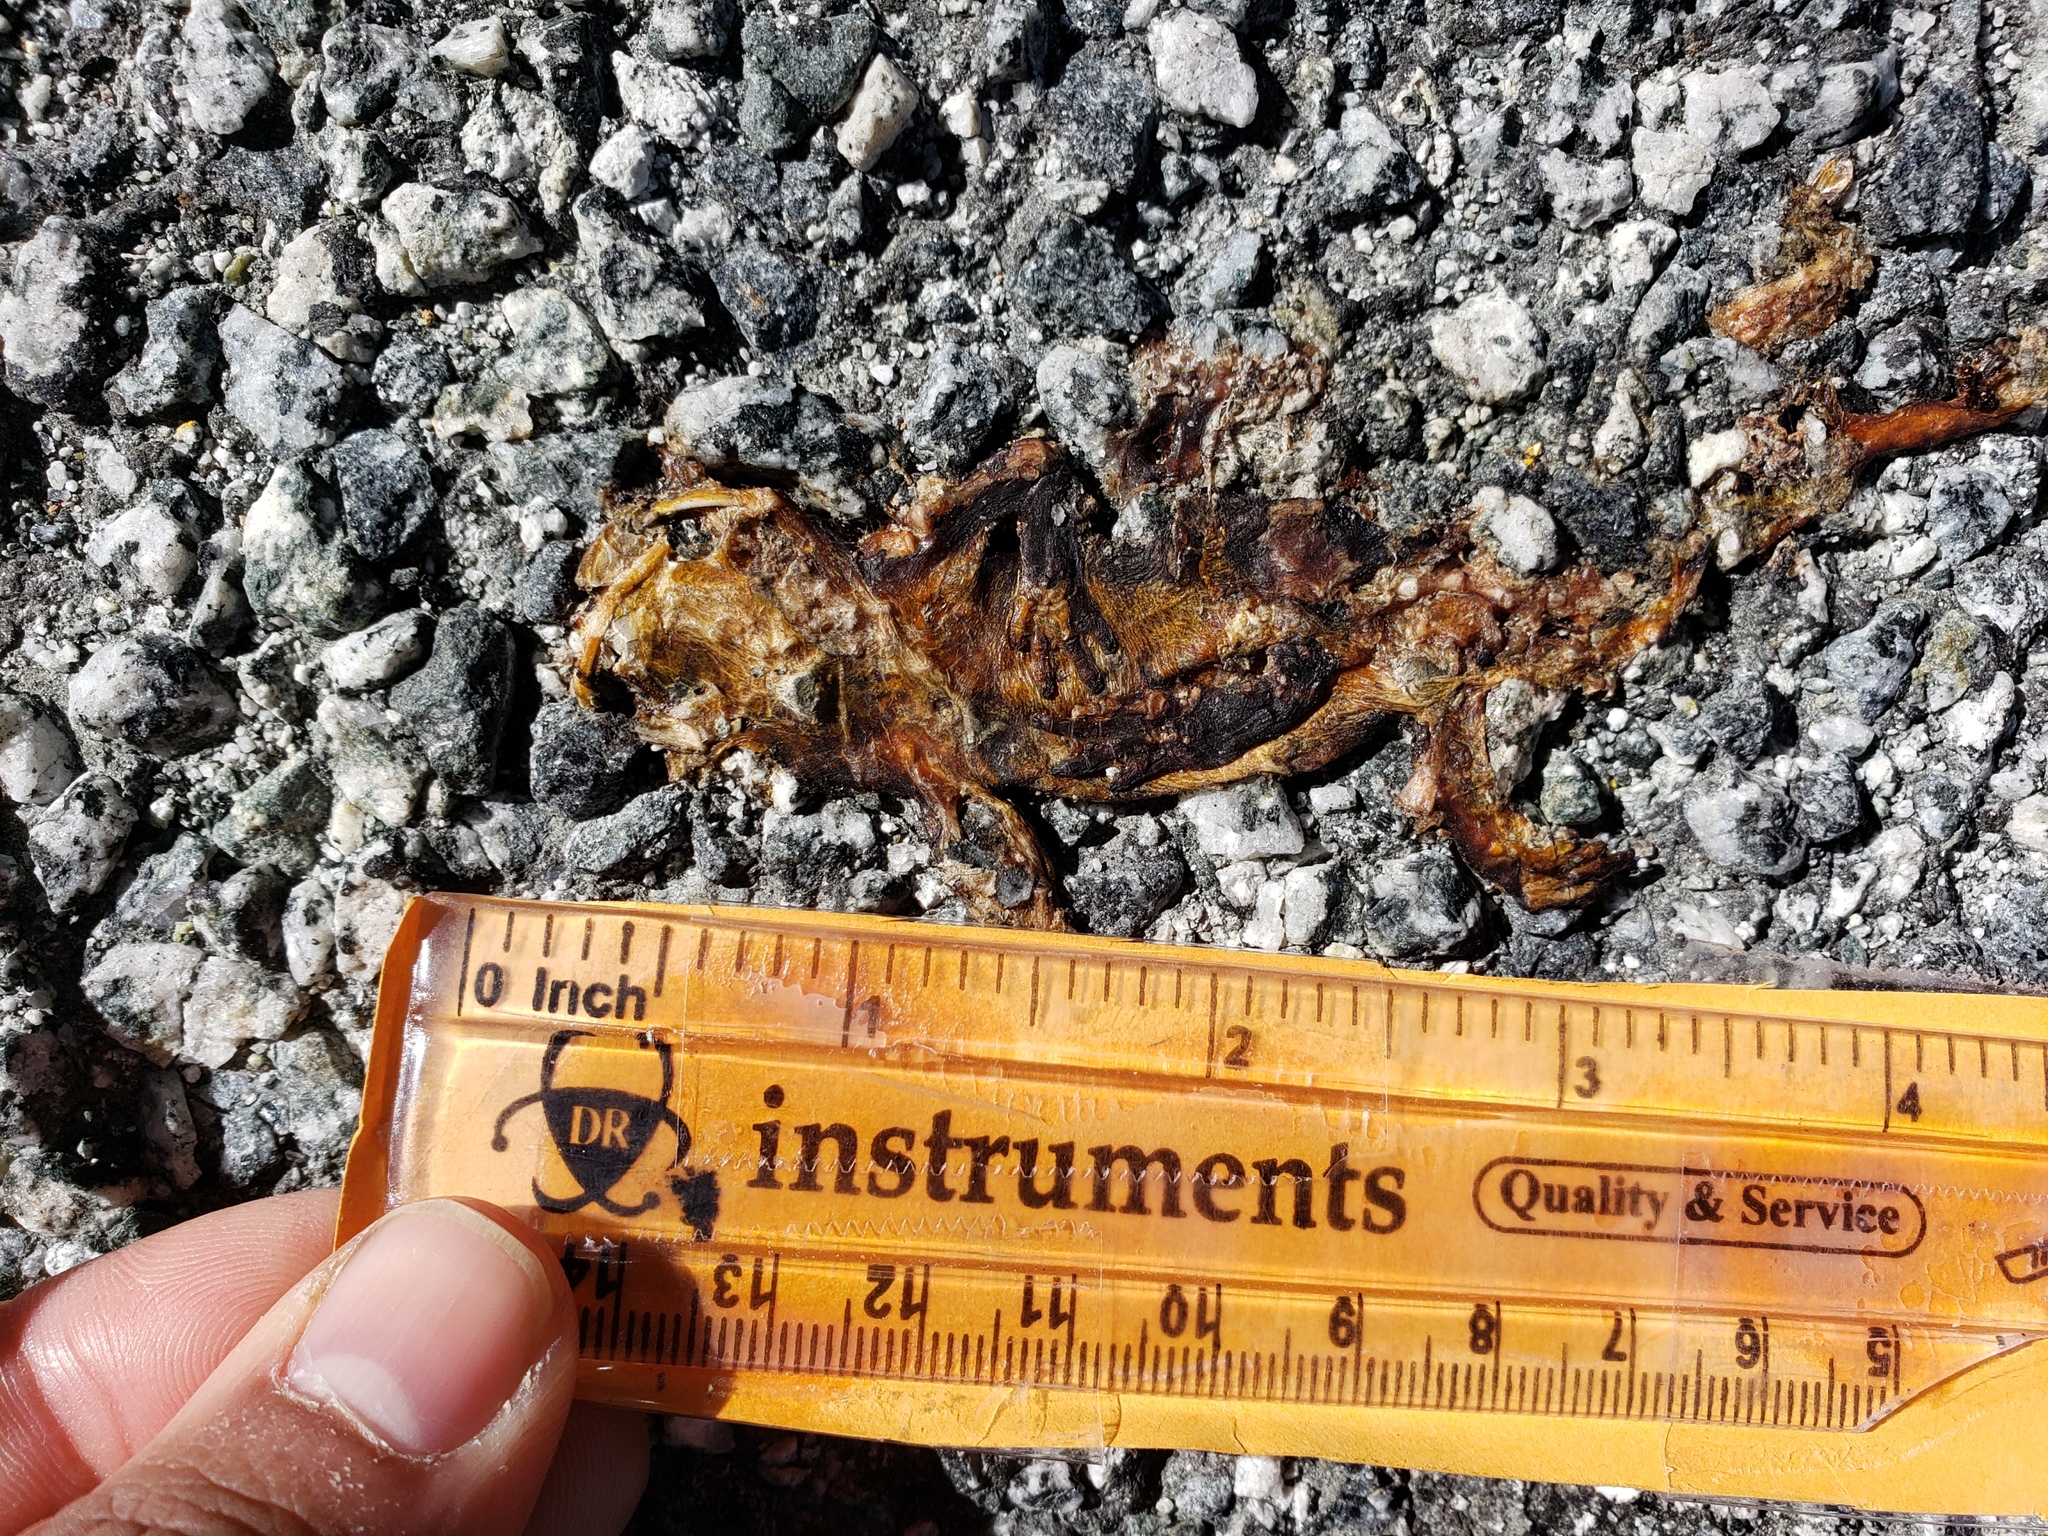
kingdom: Animalia
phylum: Chordata
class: Amphibia
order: Caudata
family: Salamandridae
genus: Taricha
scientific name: Taricha
